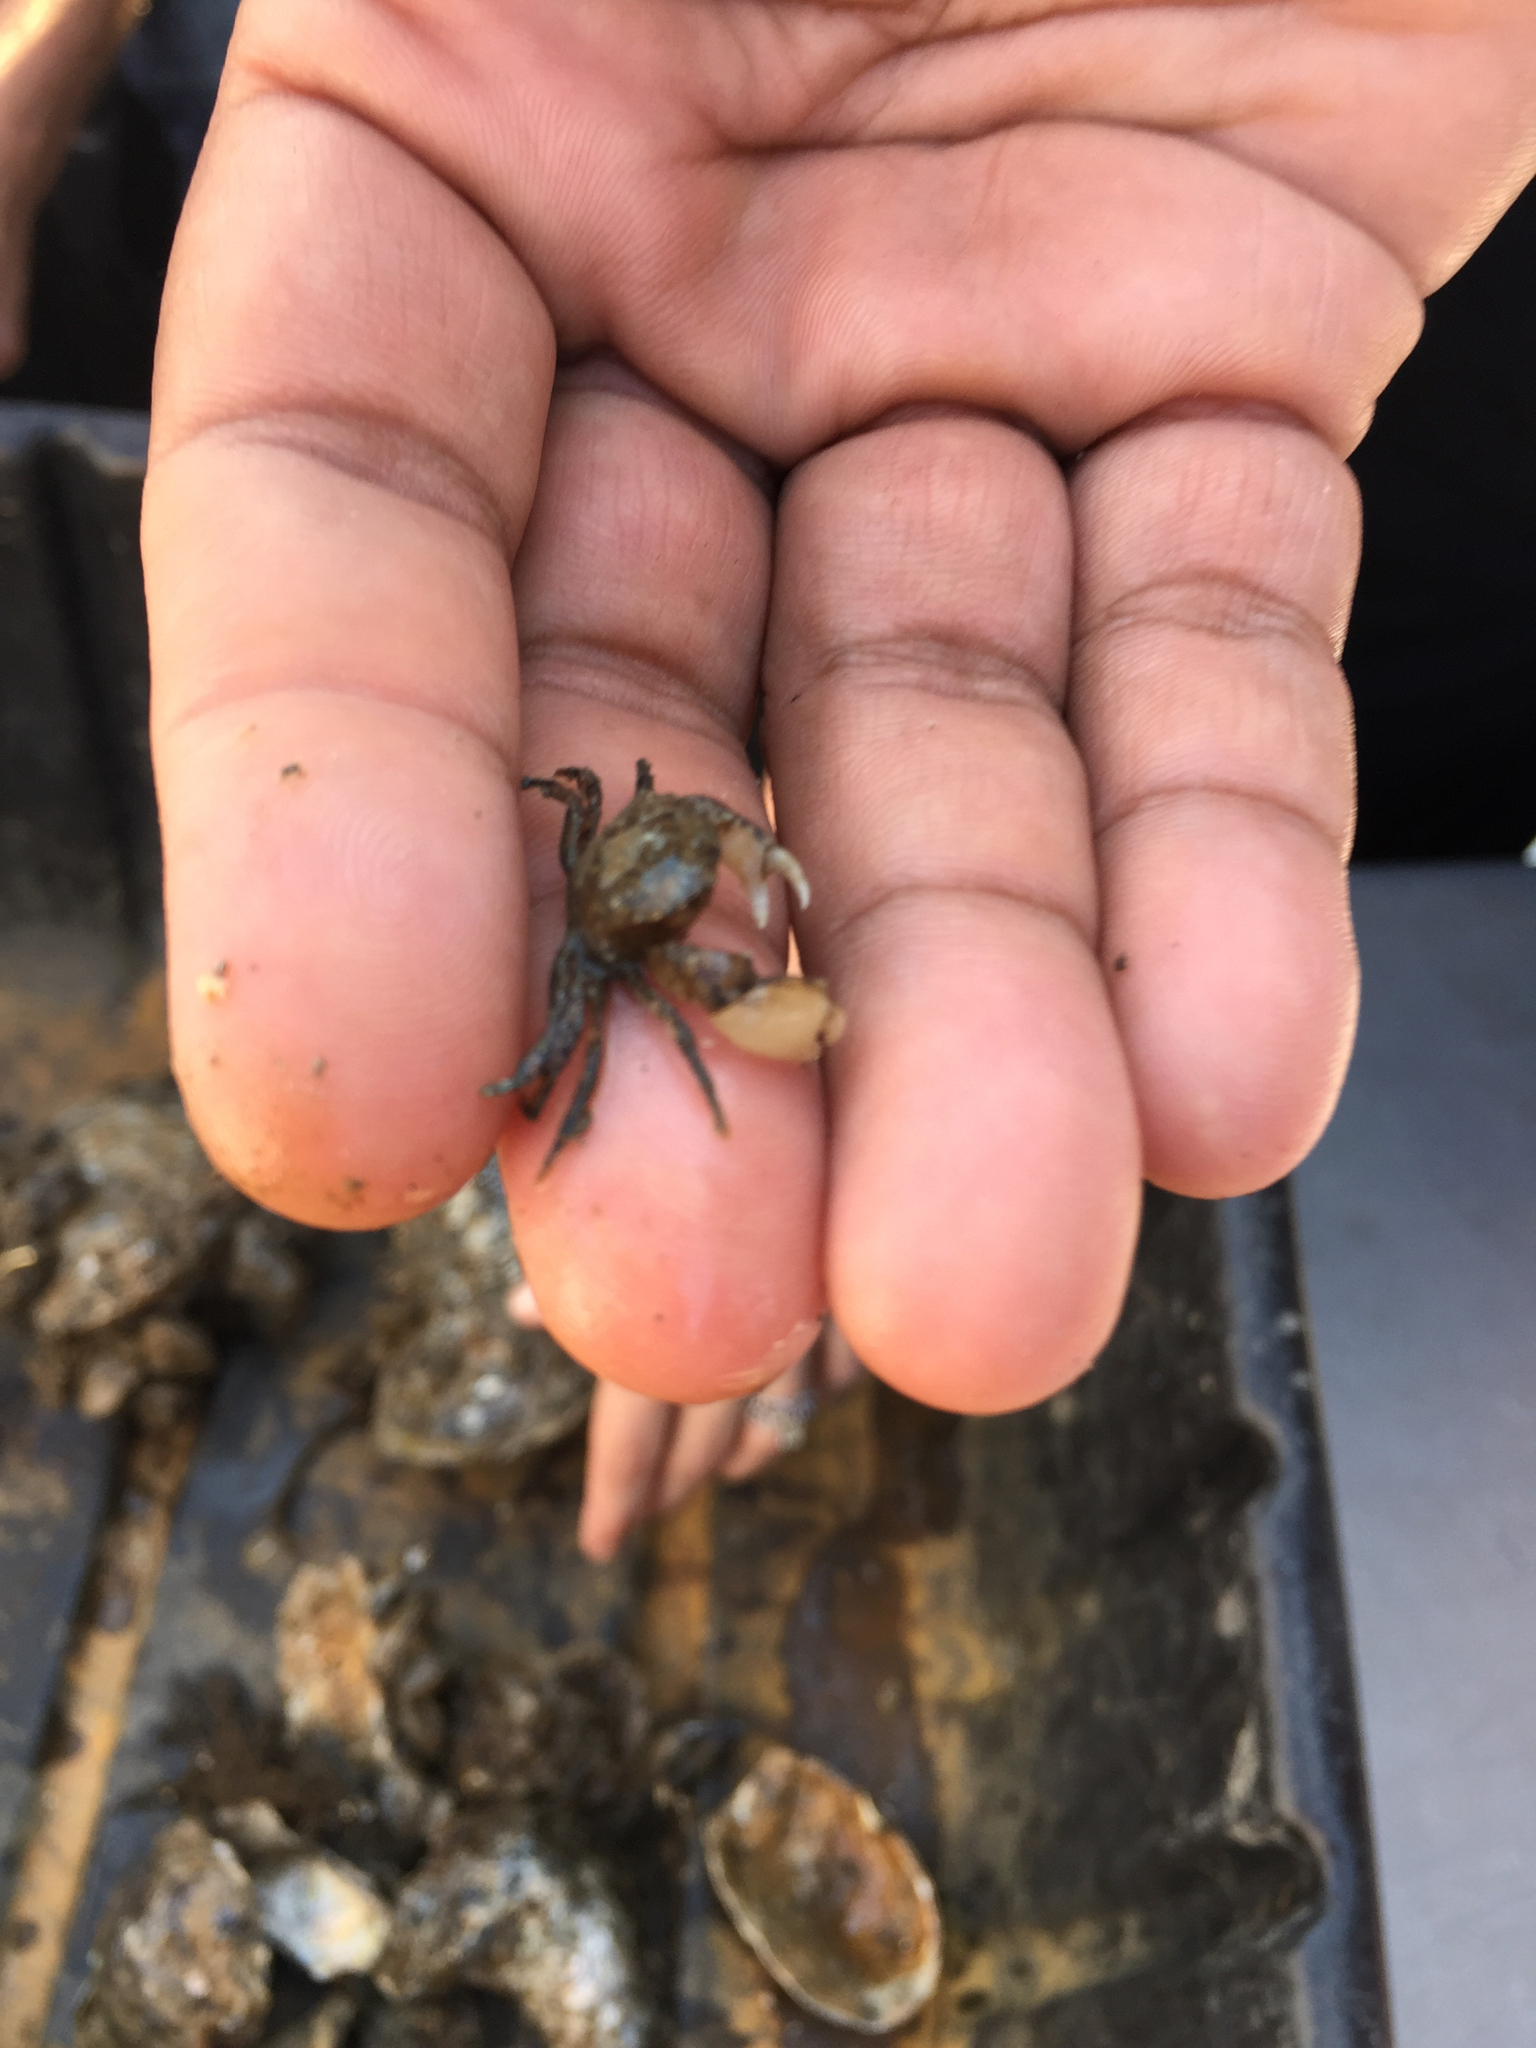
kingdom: Animalia
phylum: Arthropoda
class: Malacostraca
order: Decapoda
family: Panopeidae
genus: Rhithropanopeus
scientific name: Rhithropanopeus harrisii
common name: Dwarf crab
